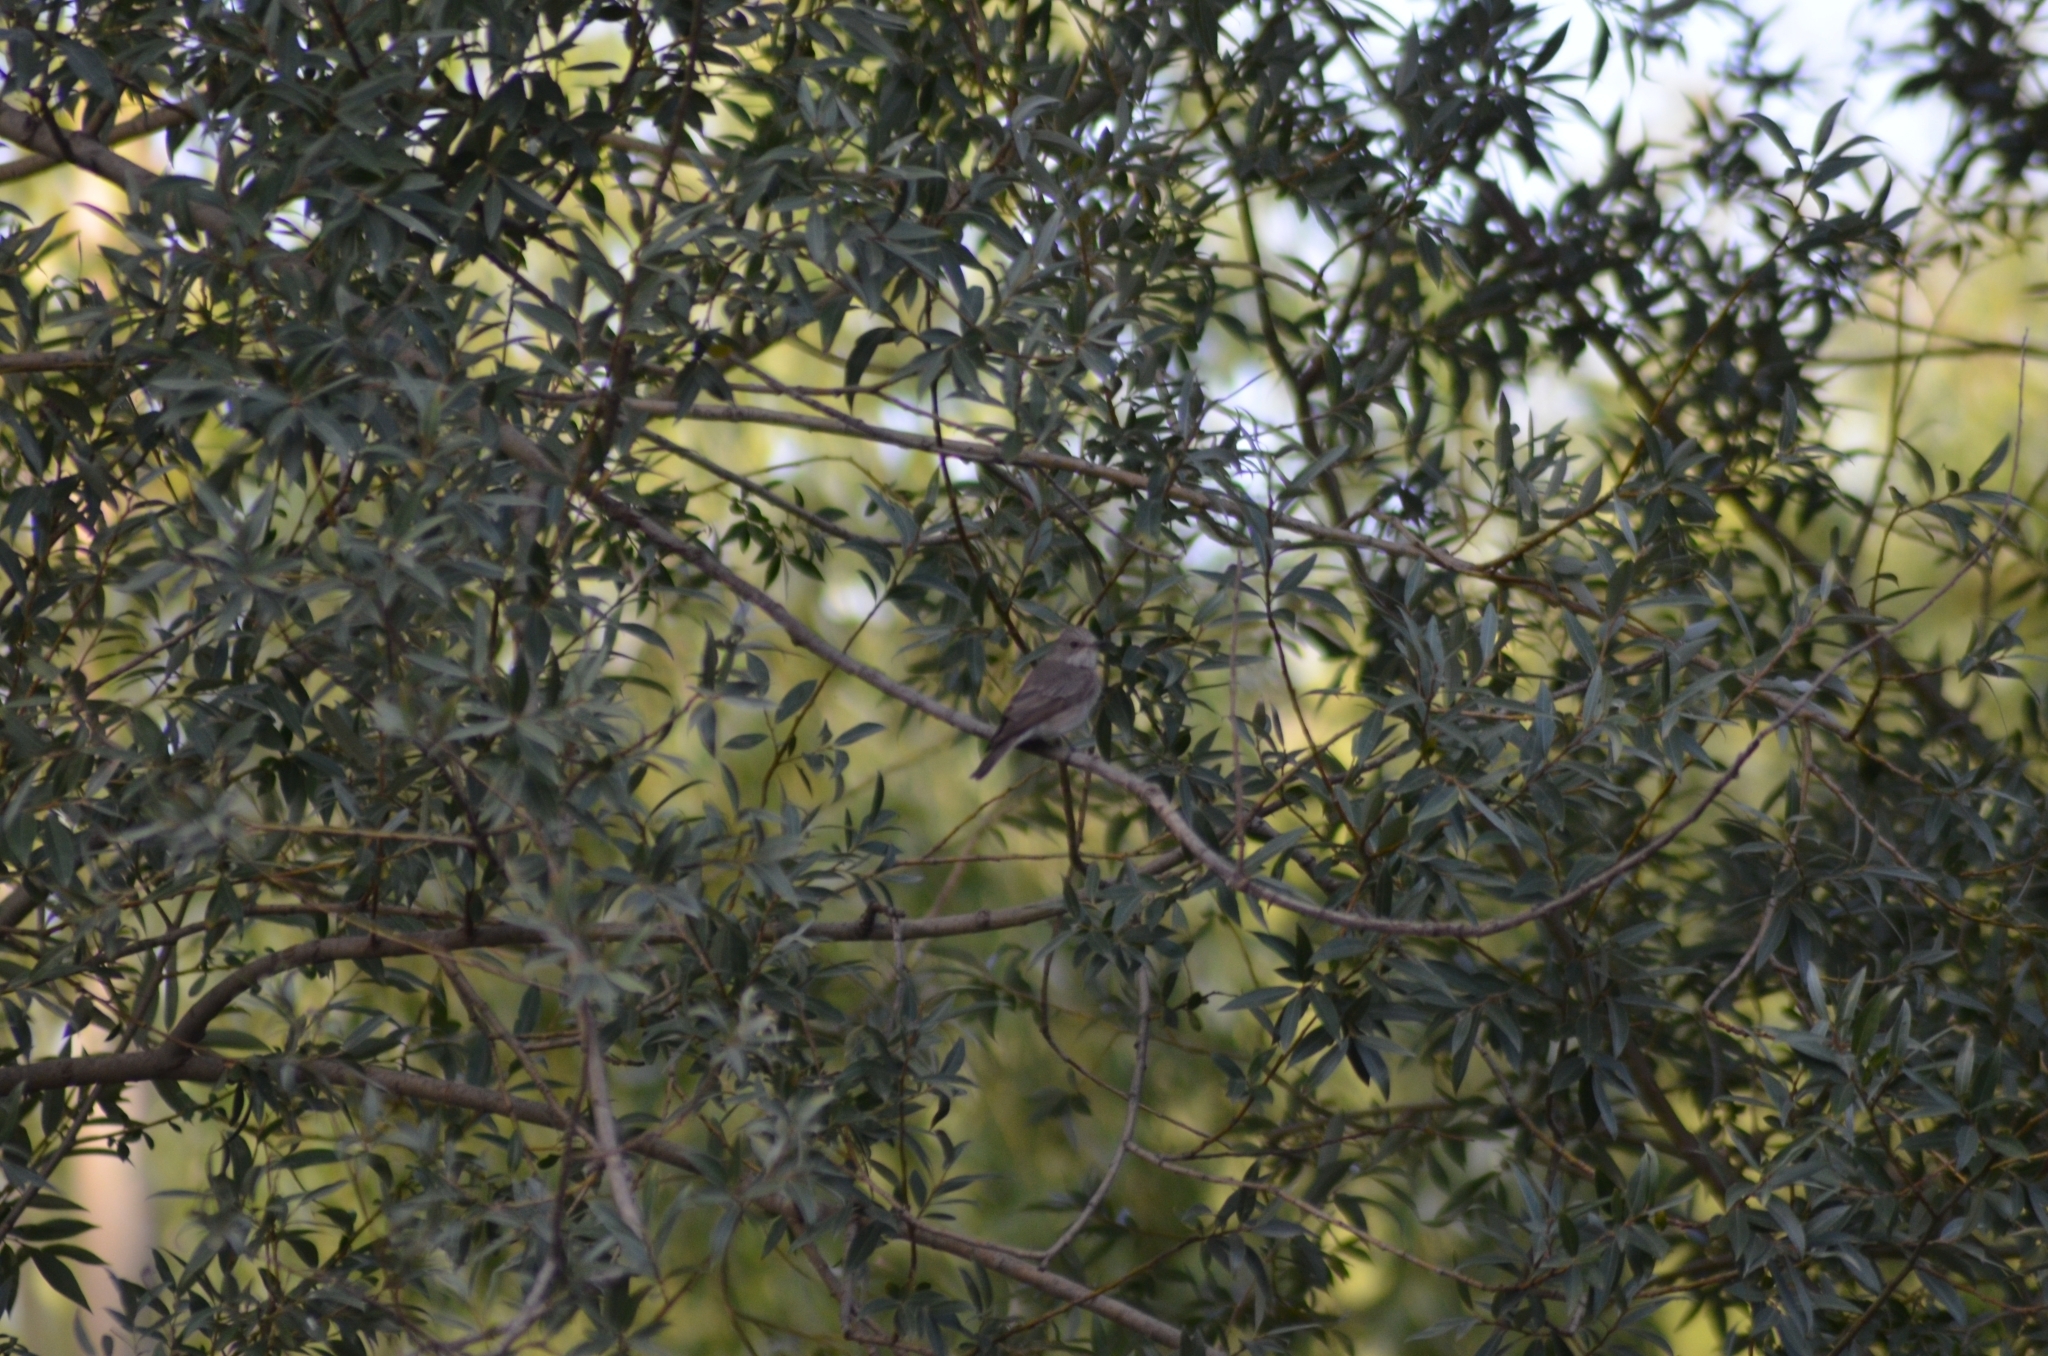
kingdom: Animalia
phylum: Chordata
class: Aves
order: Passeriformes
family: Muscicapidae
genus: Muscicapa
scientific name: Muscicapa striata
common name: Spotted flycatcher
